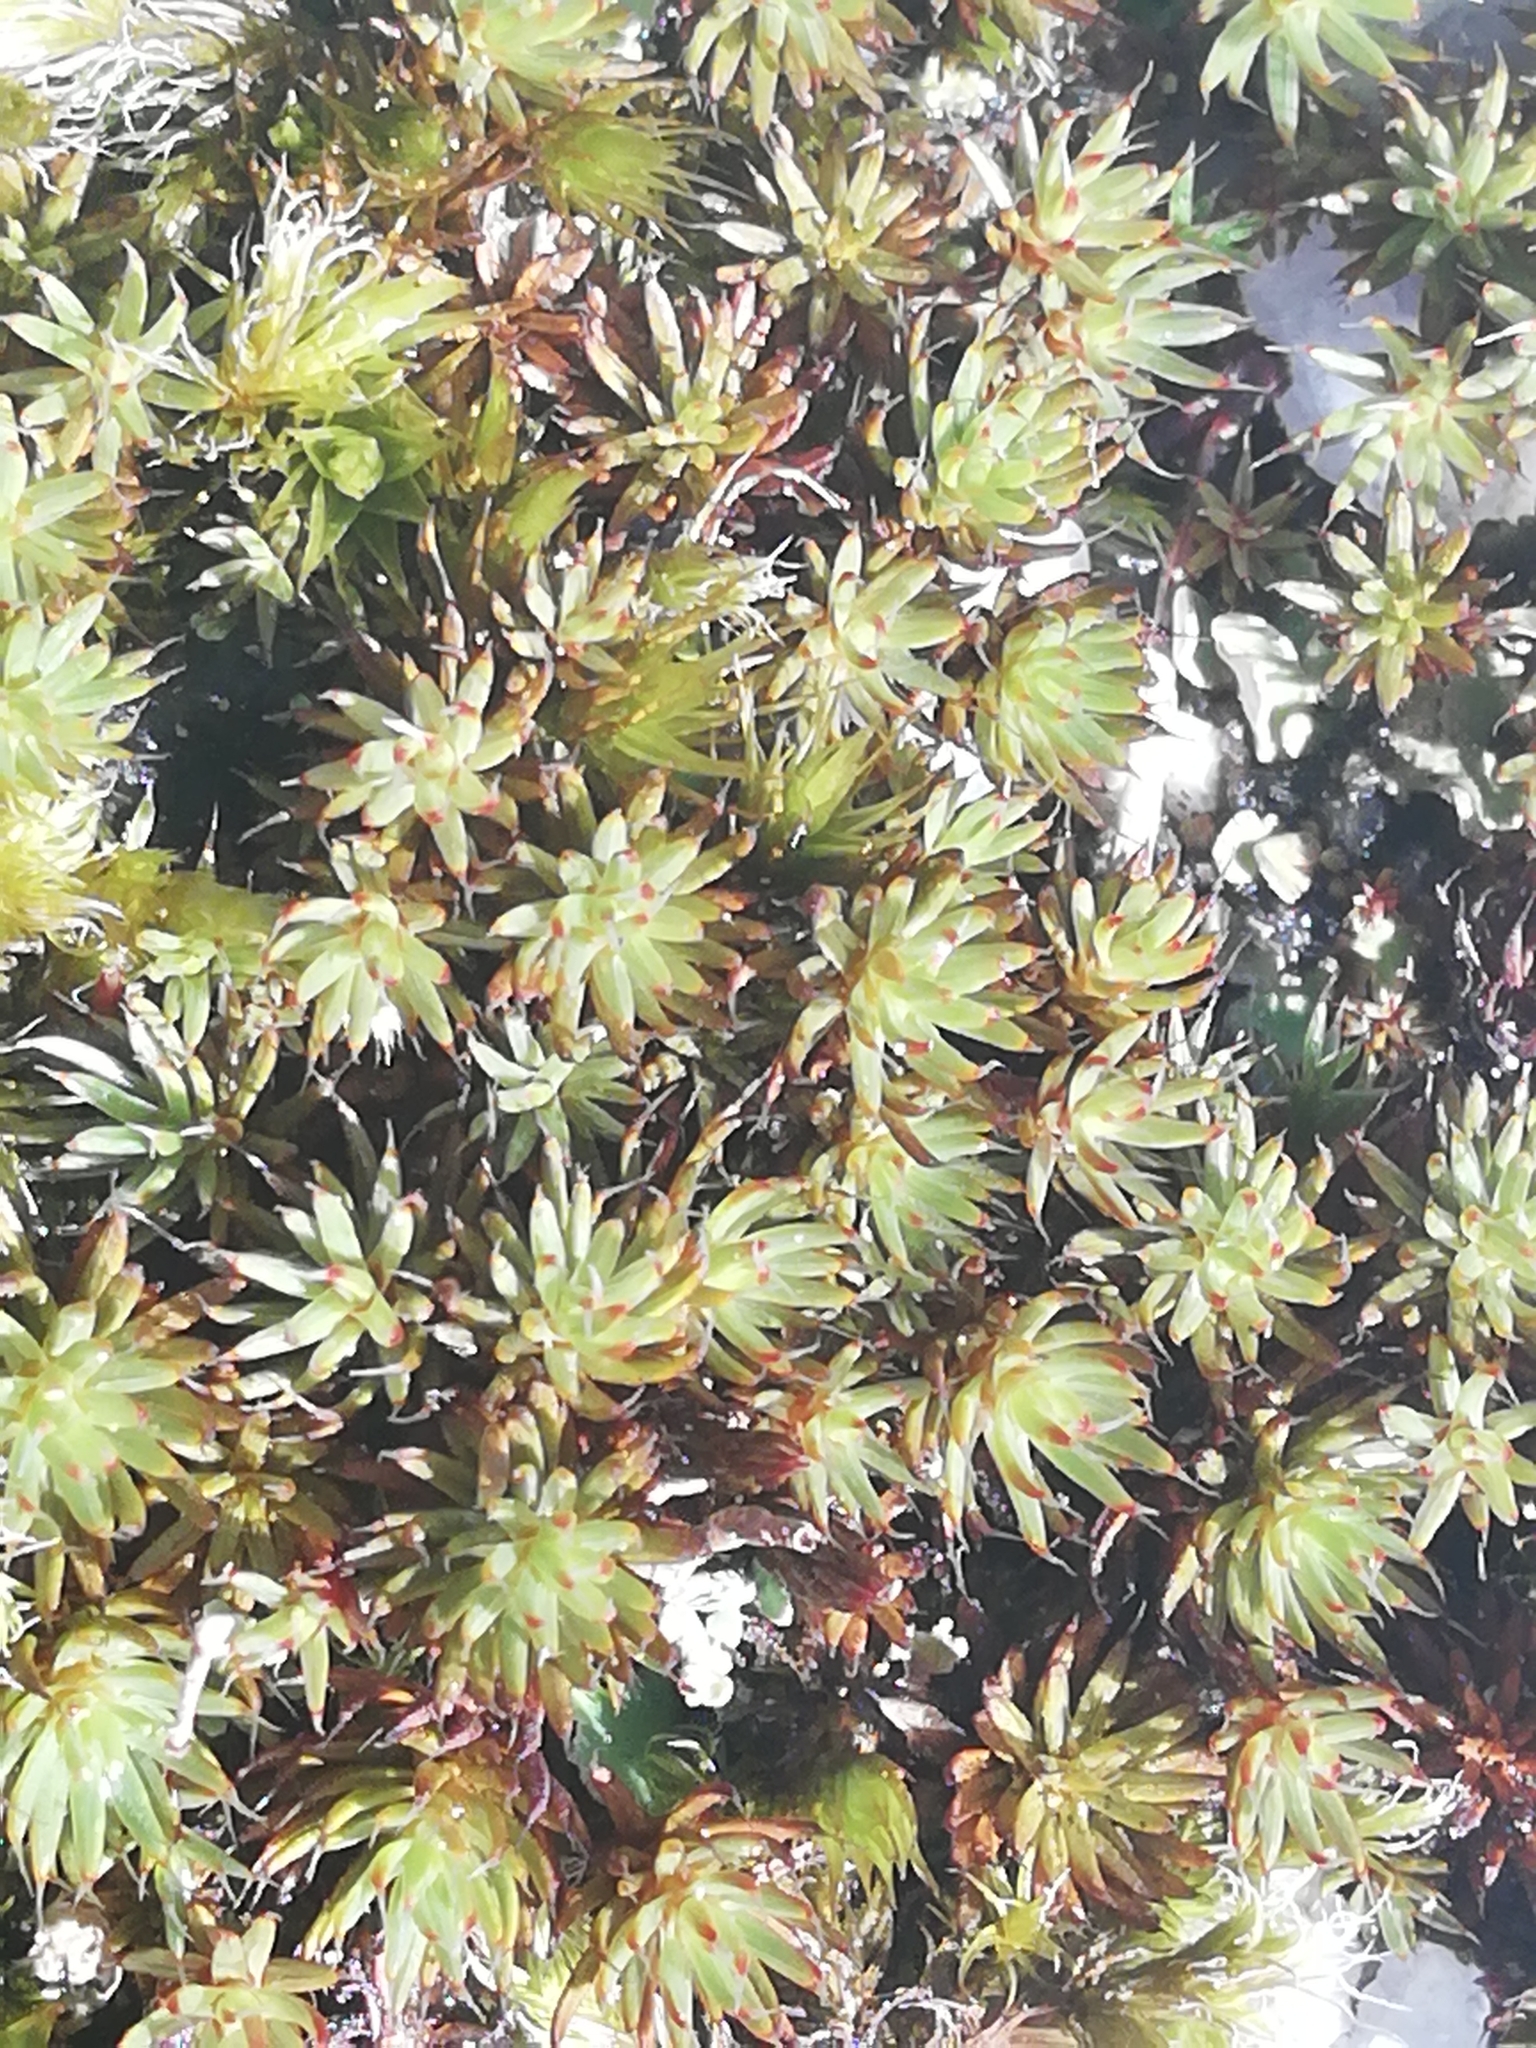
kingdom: Plantae
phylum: Bryophyta
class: Polytrichopsida
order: Polytrichales
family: Polytrichaceae
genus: Polytrichum
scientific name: Polytrichum piliferum
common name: Bristly haircap
